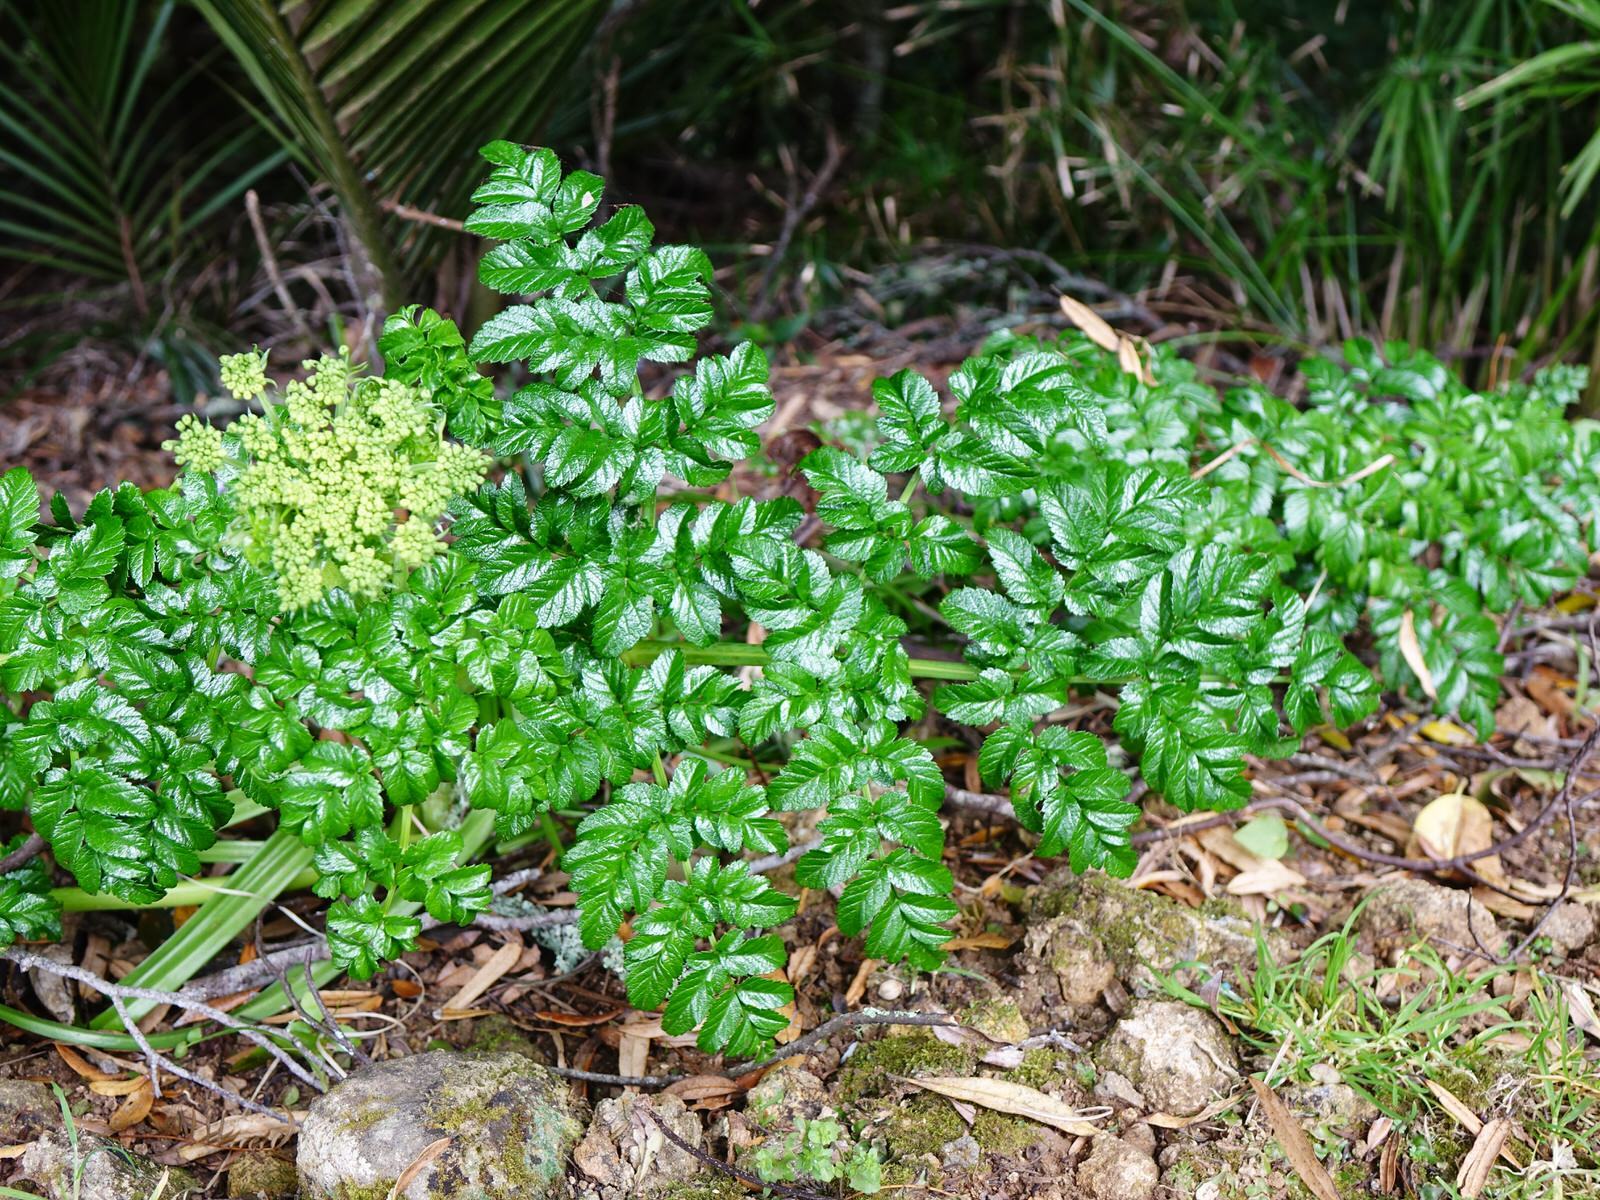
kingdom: Plantae
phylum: Tracheophyta
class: Magnoliopsida
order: Apiales
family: Apiaceae
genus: Angelica
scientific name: Angelica pachycarpa
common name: Portuguese angelica
